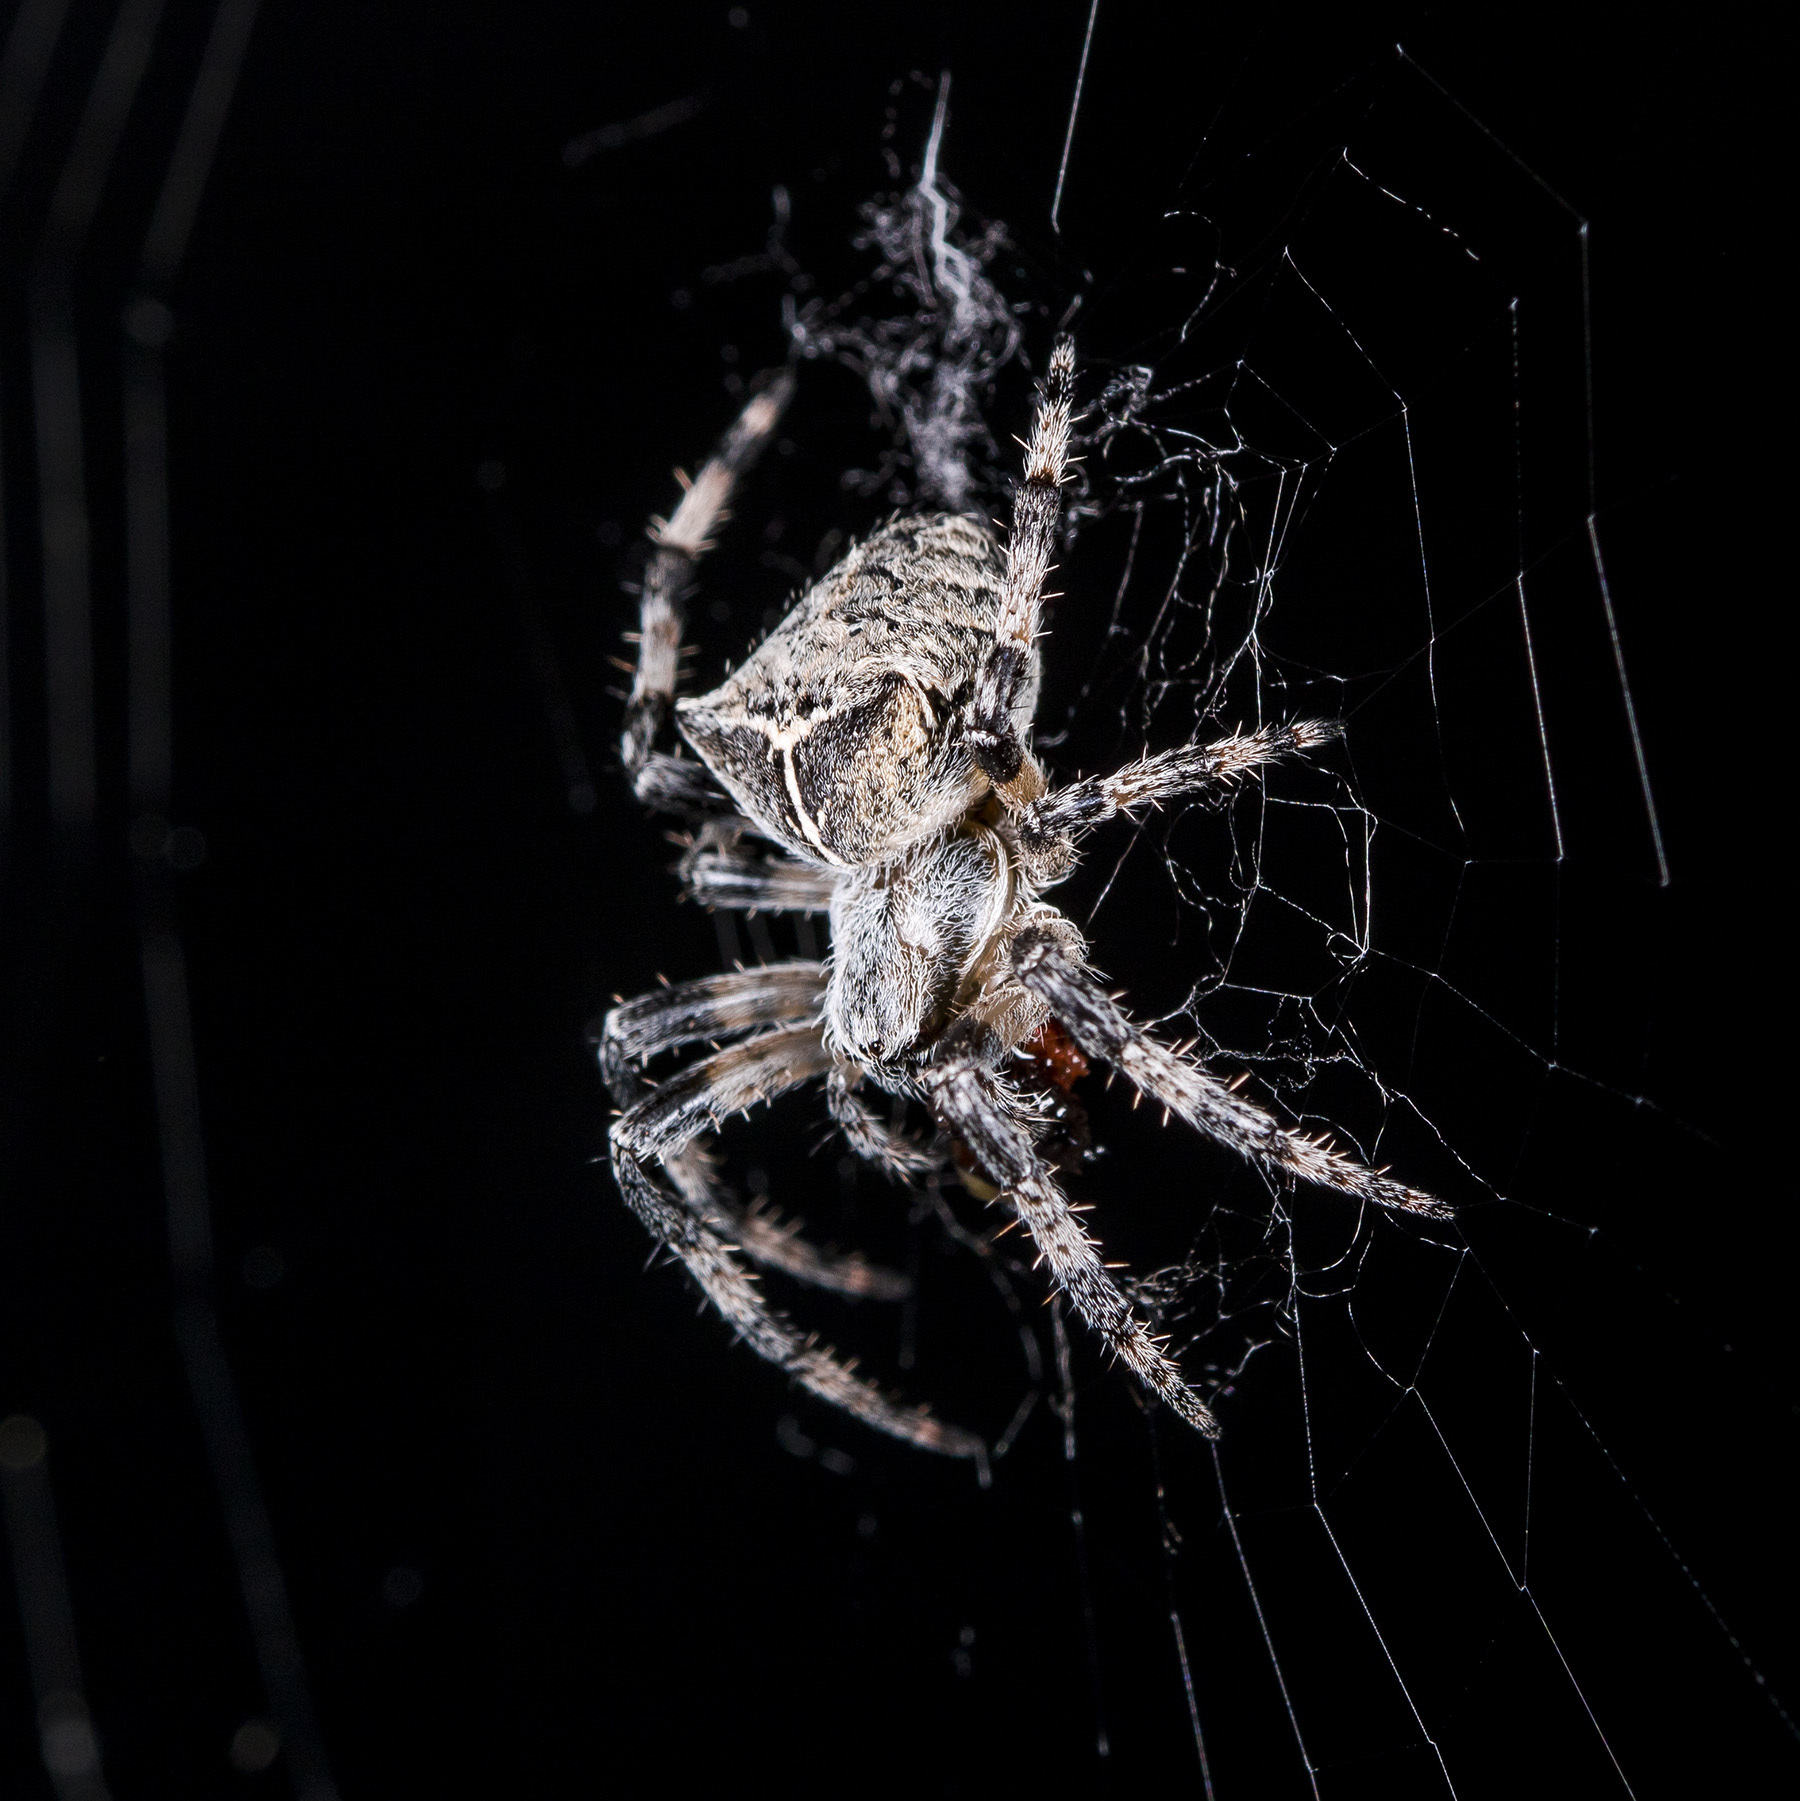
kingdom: Animalia
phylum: Arthropoda
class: Arachnida
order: Araneae
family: Araneidae
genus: Araneus
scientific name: Araneus tartaricus
